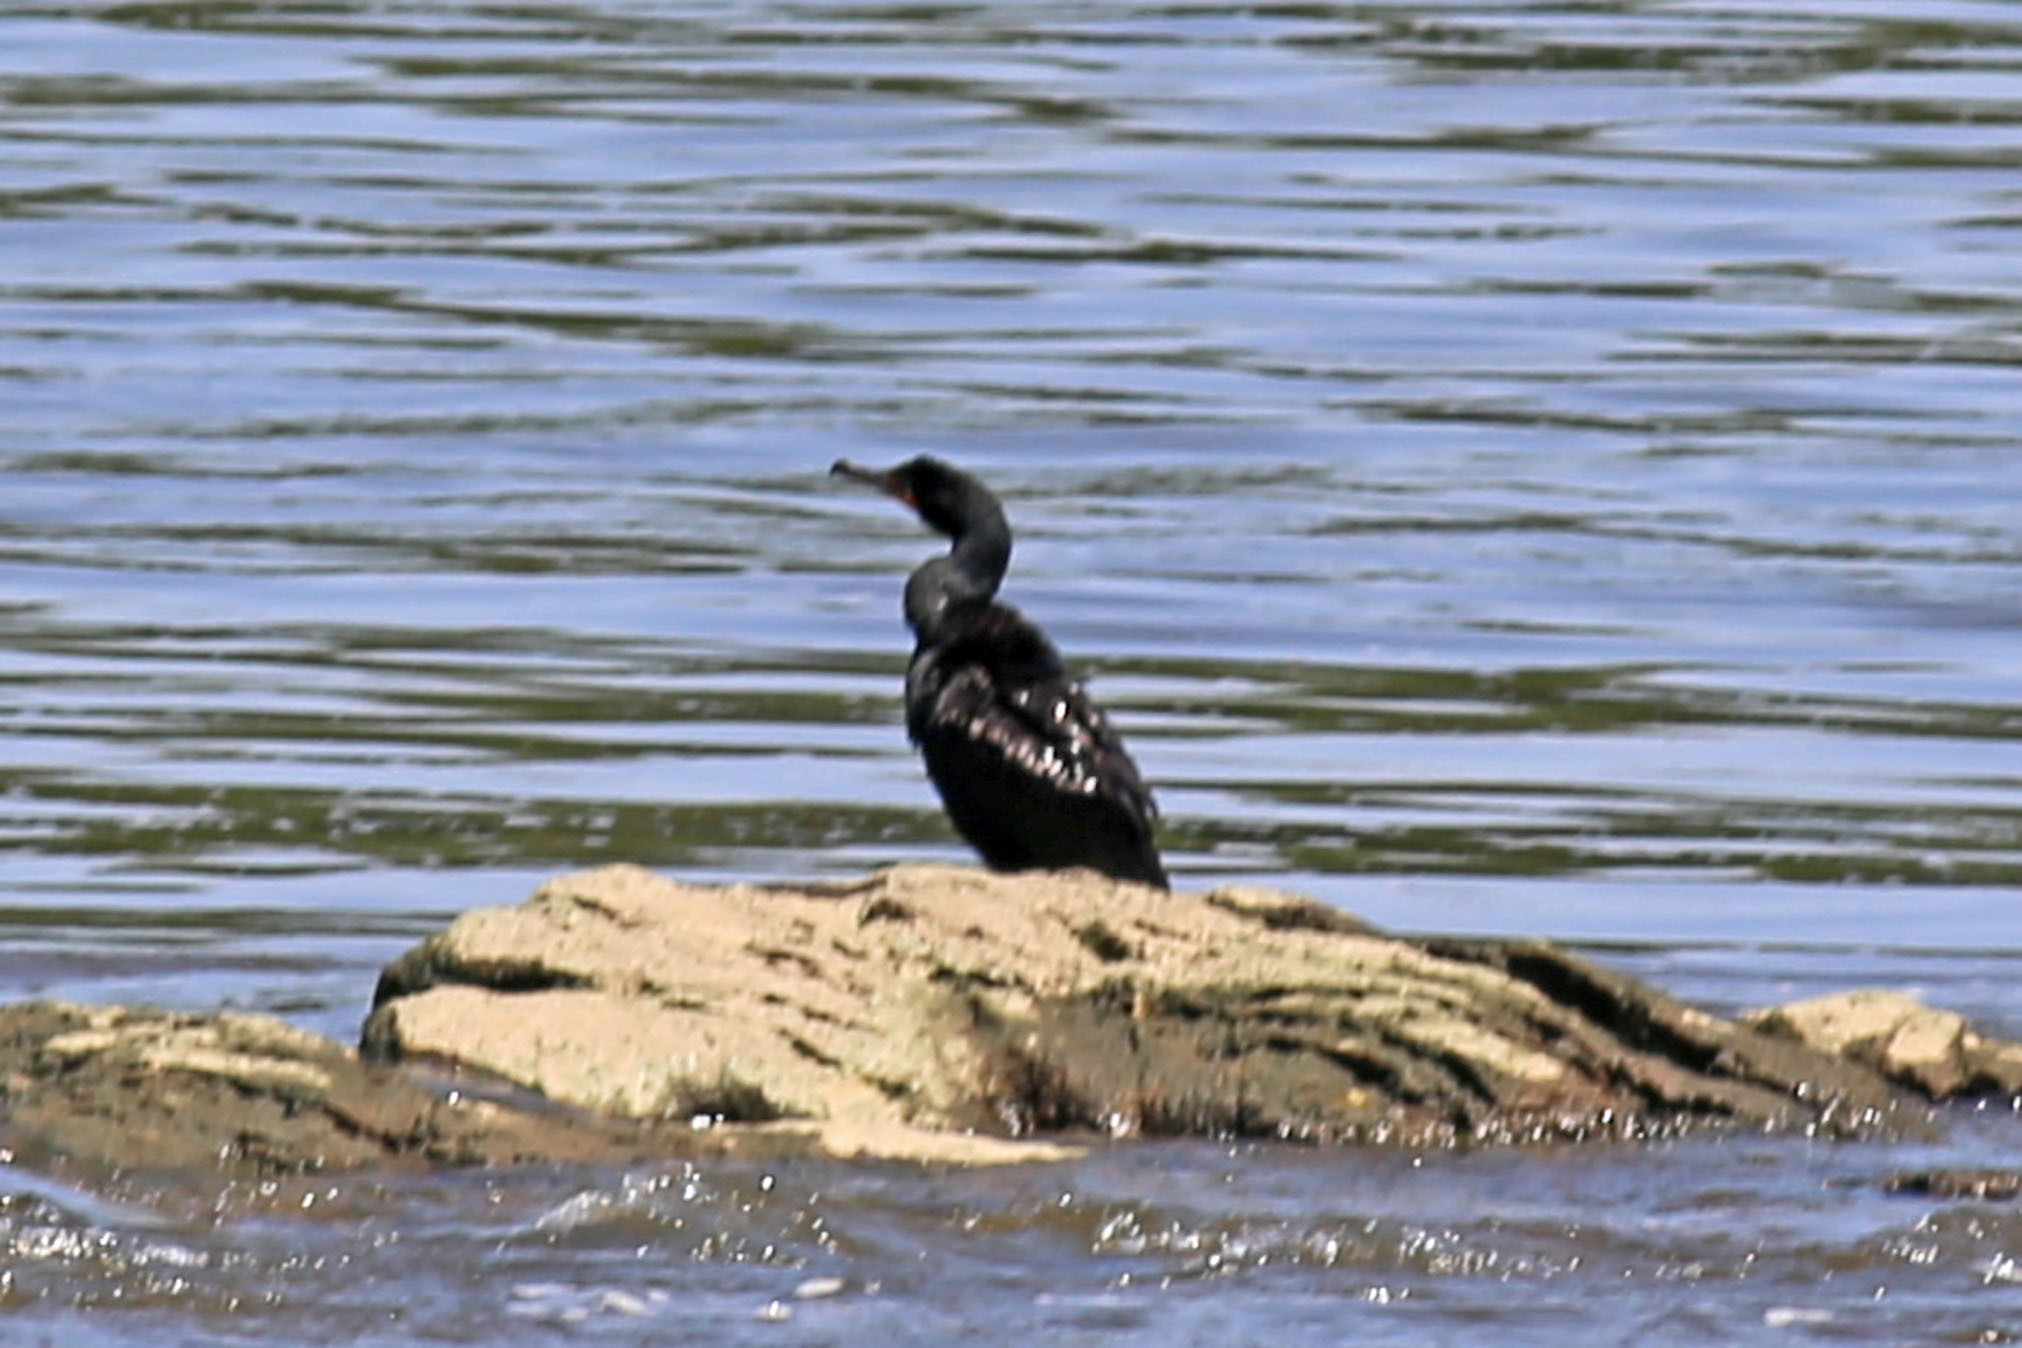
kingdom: Animalia
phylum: Chordata
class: Aves
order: Suliformes
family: Phalacrocoracidae
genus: Phalacrocorax
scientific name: Phalacrocorax auritus
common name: Double-crested cormorant
